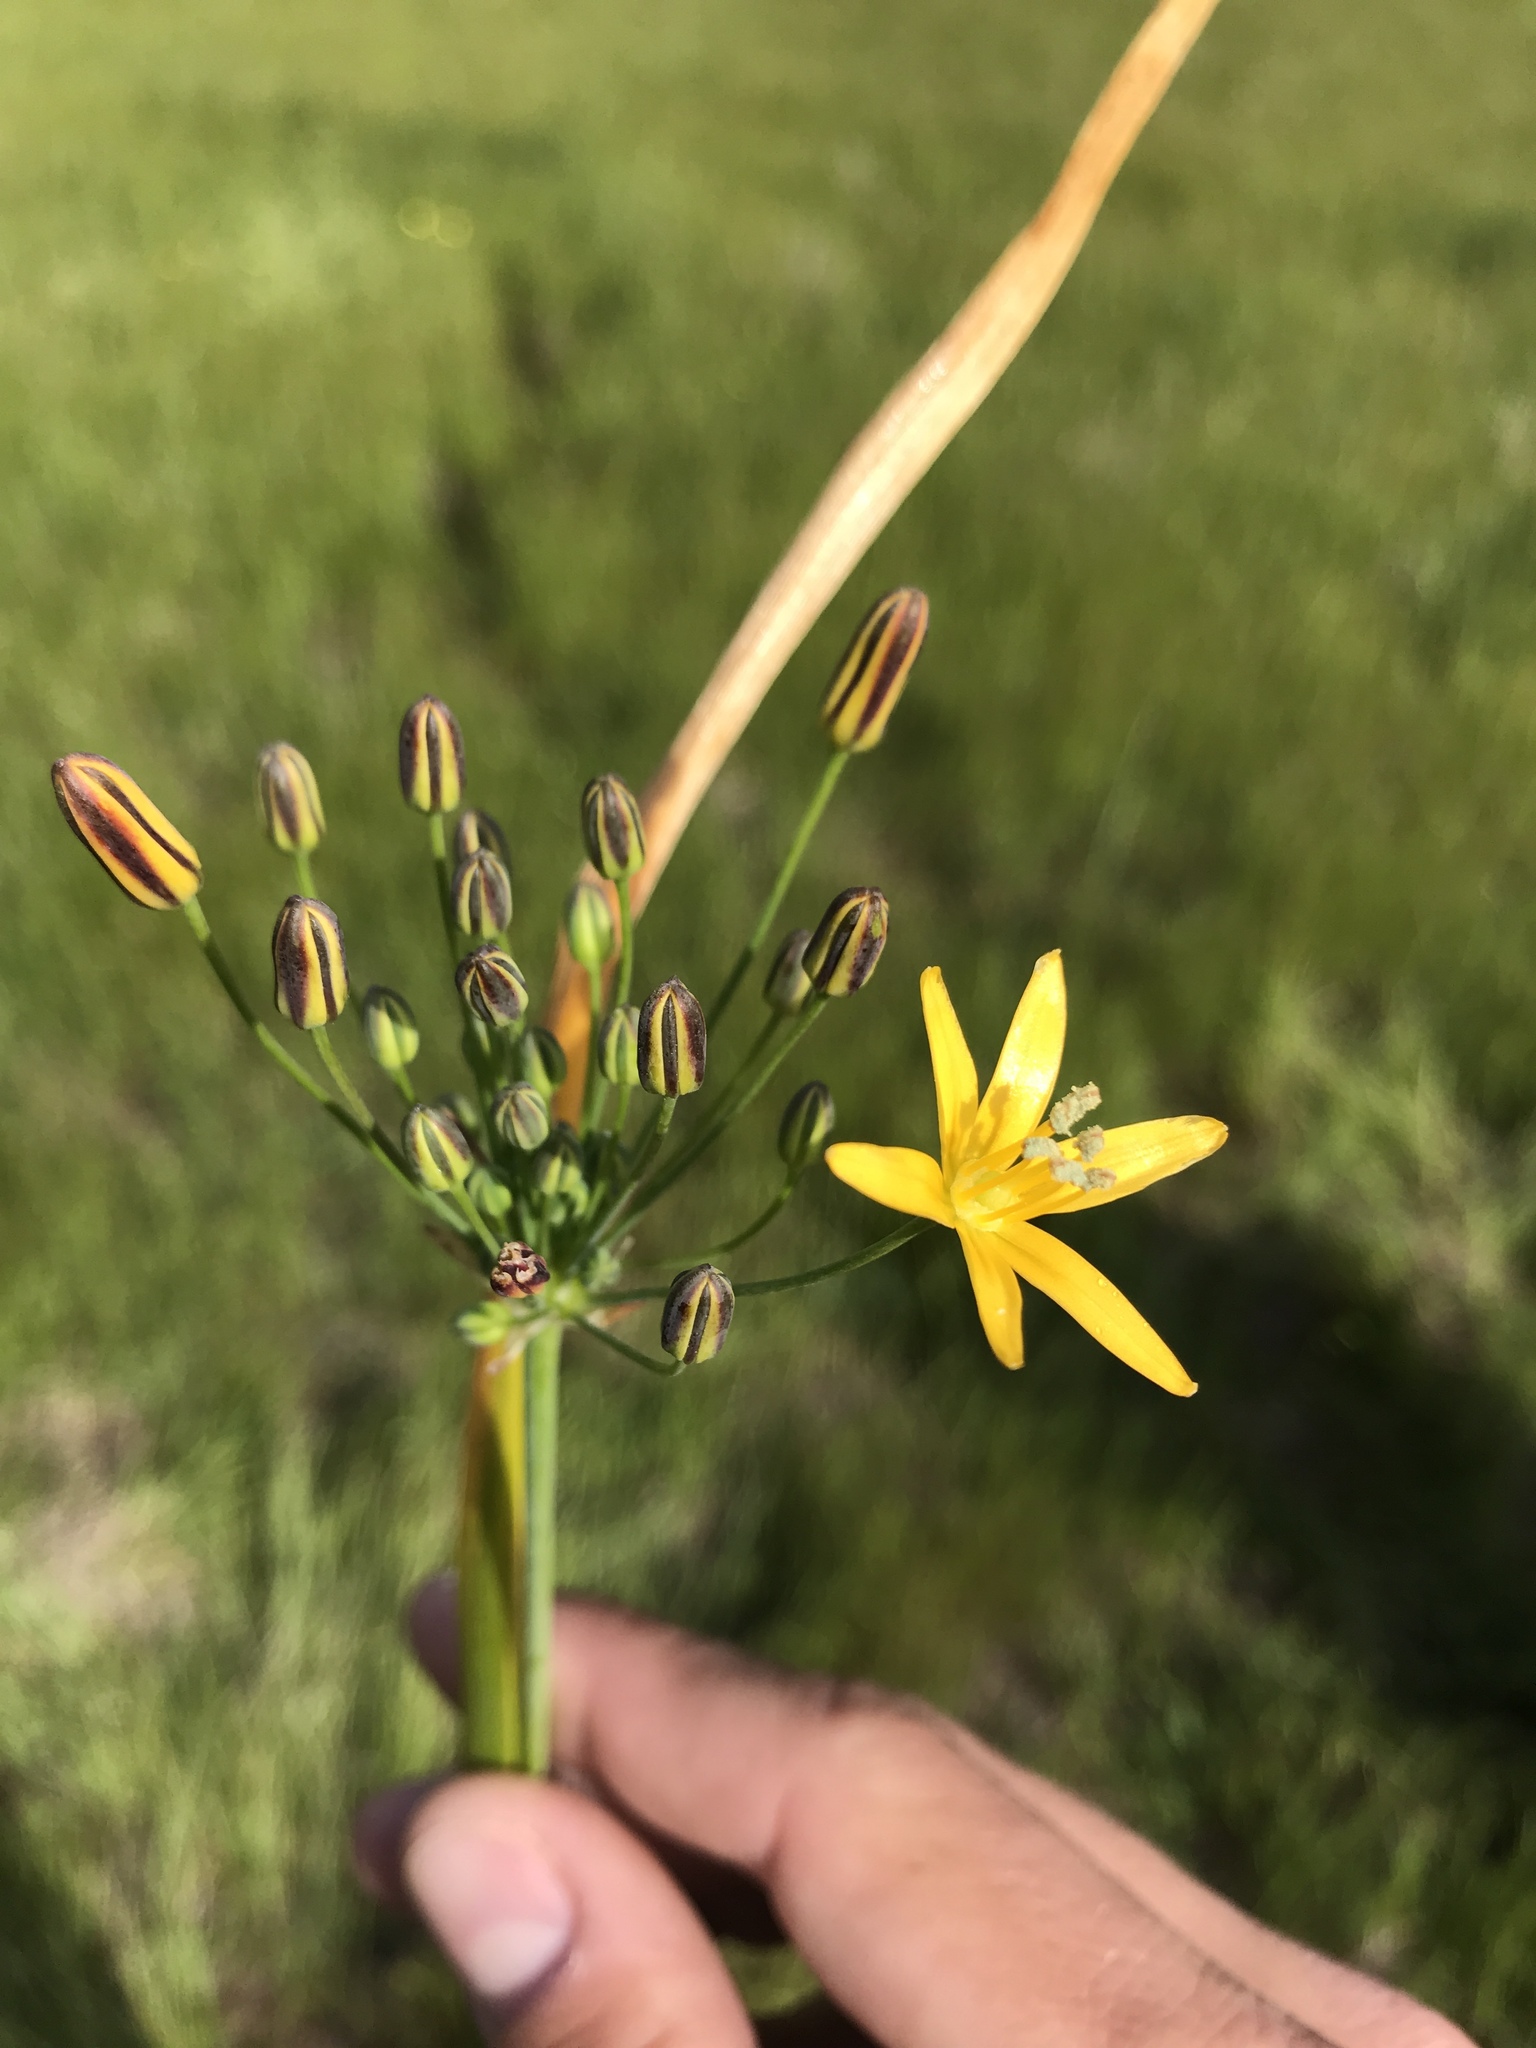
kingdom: Plantae
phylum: Tracheophyta
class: Liliopsida
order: Asparagales
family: Asparagaceae
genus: Bloomeria
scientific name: Bloomeria crocea
